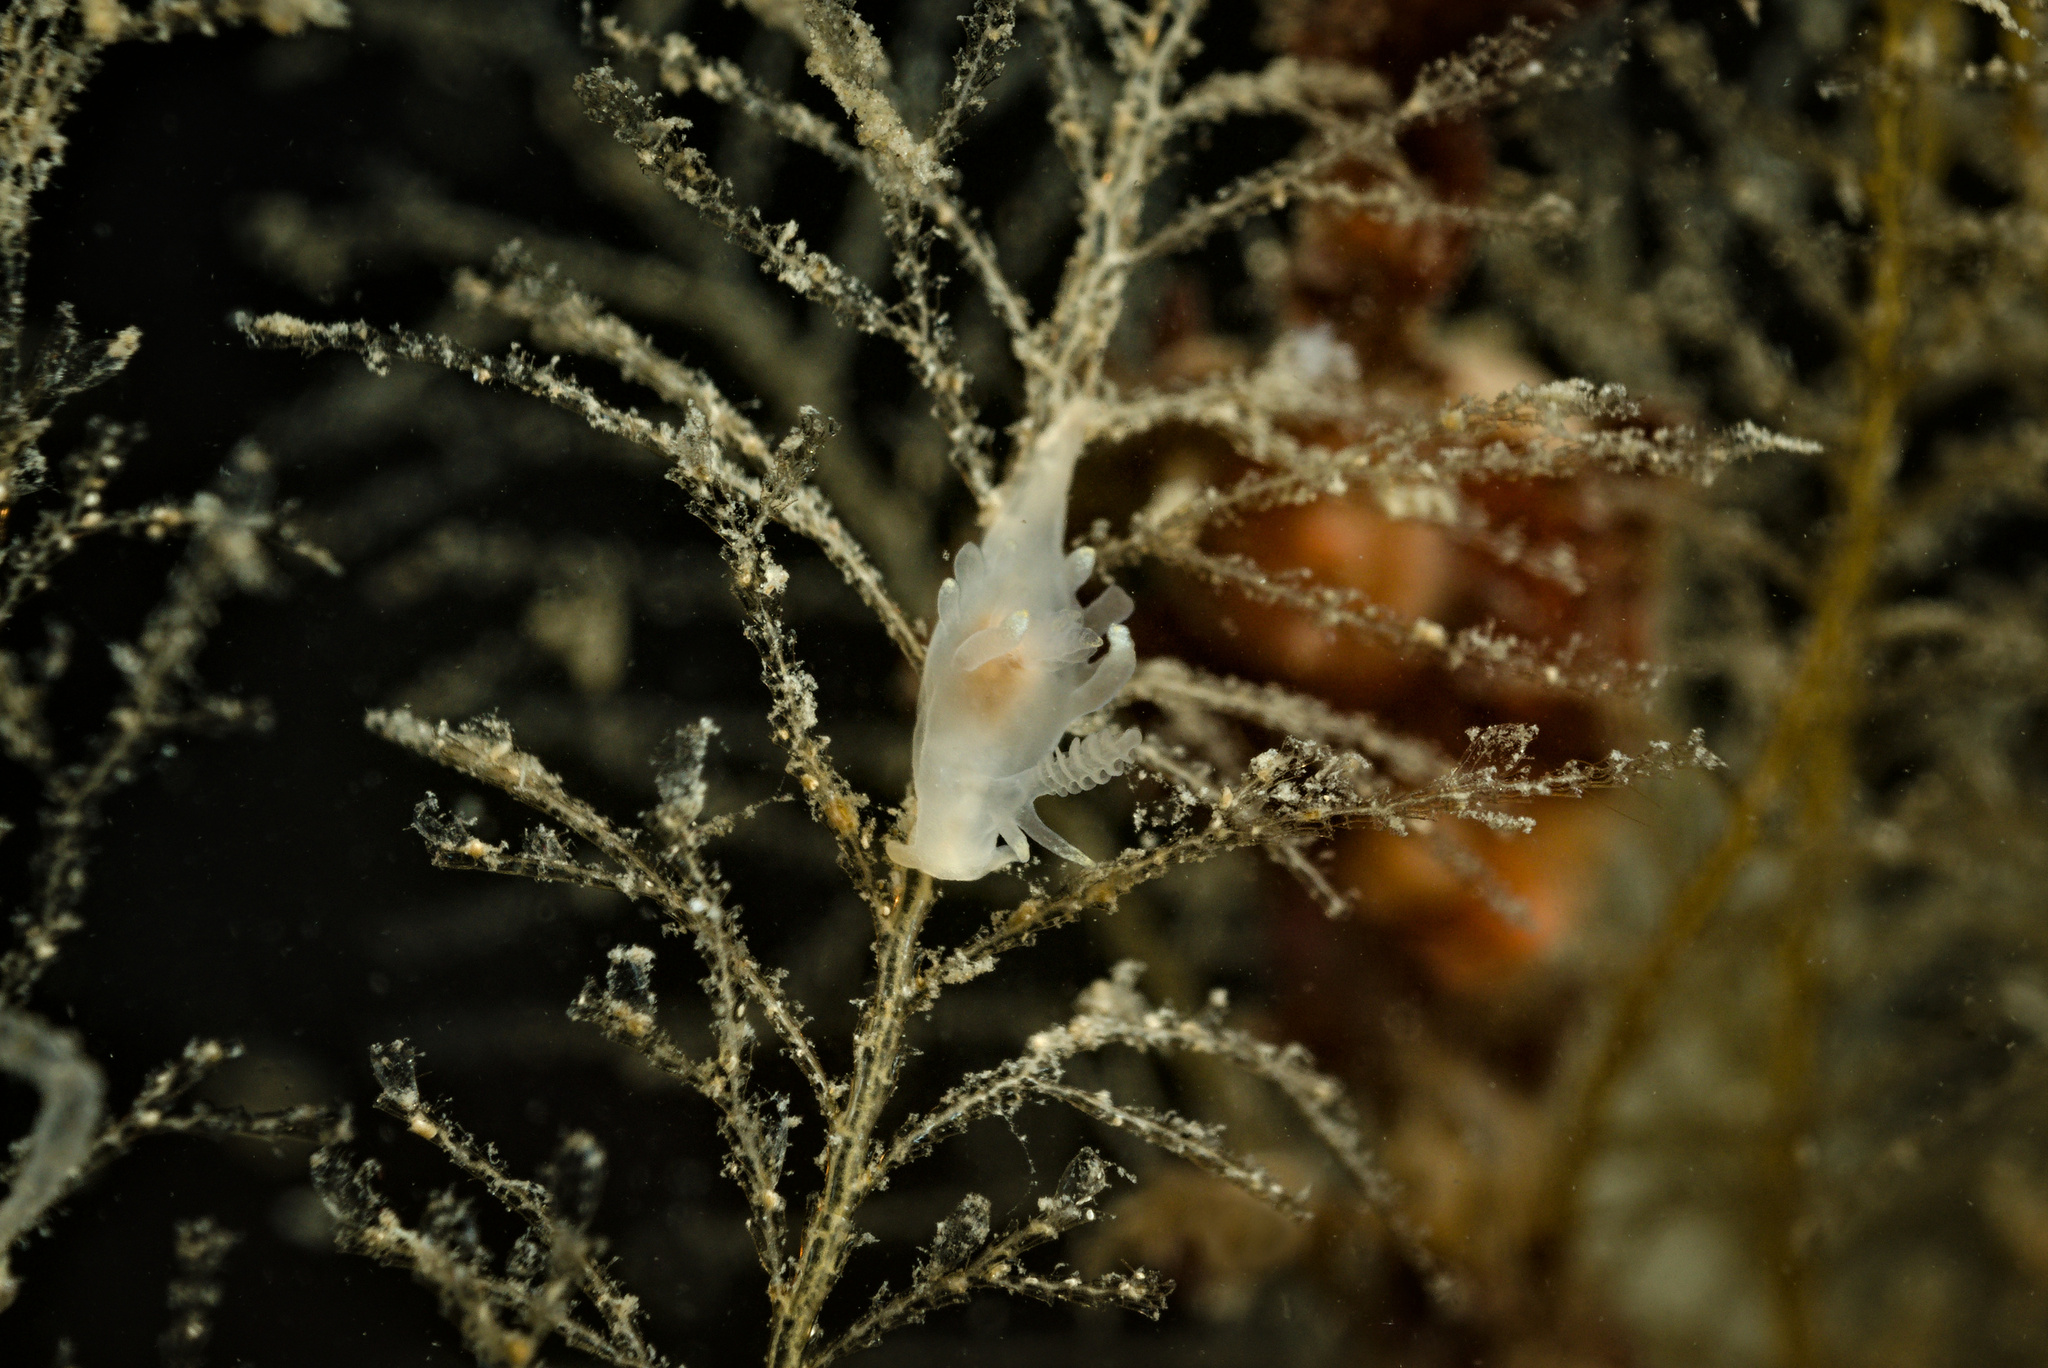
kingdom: Animalia
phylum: Mollusca
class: Gastropoda
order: Nudibranchia
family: Goniodorididae
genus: Ancula
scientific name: Ancula gibbosa
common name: Atlantic ancula
